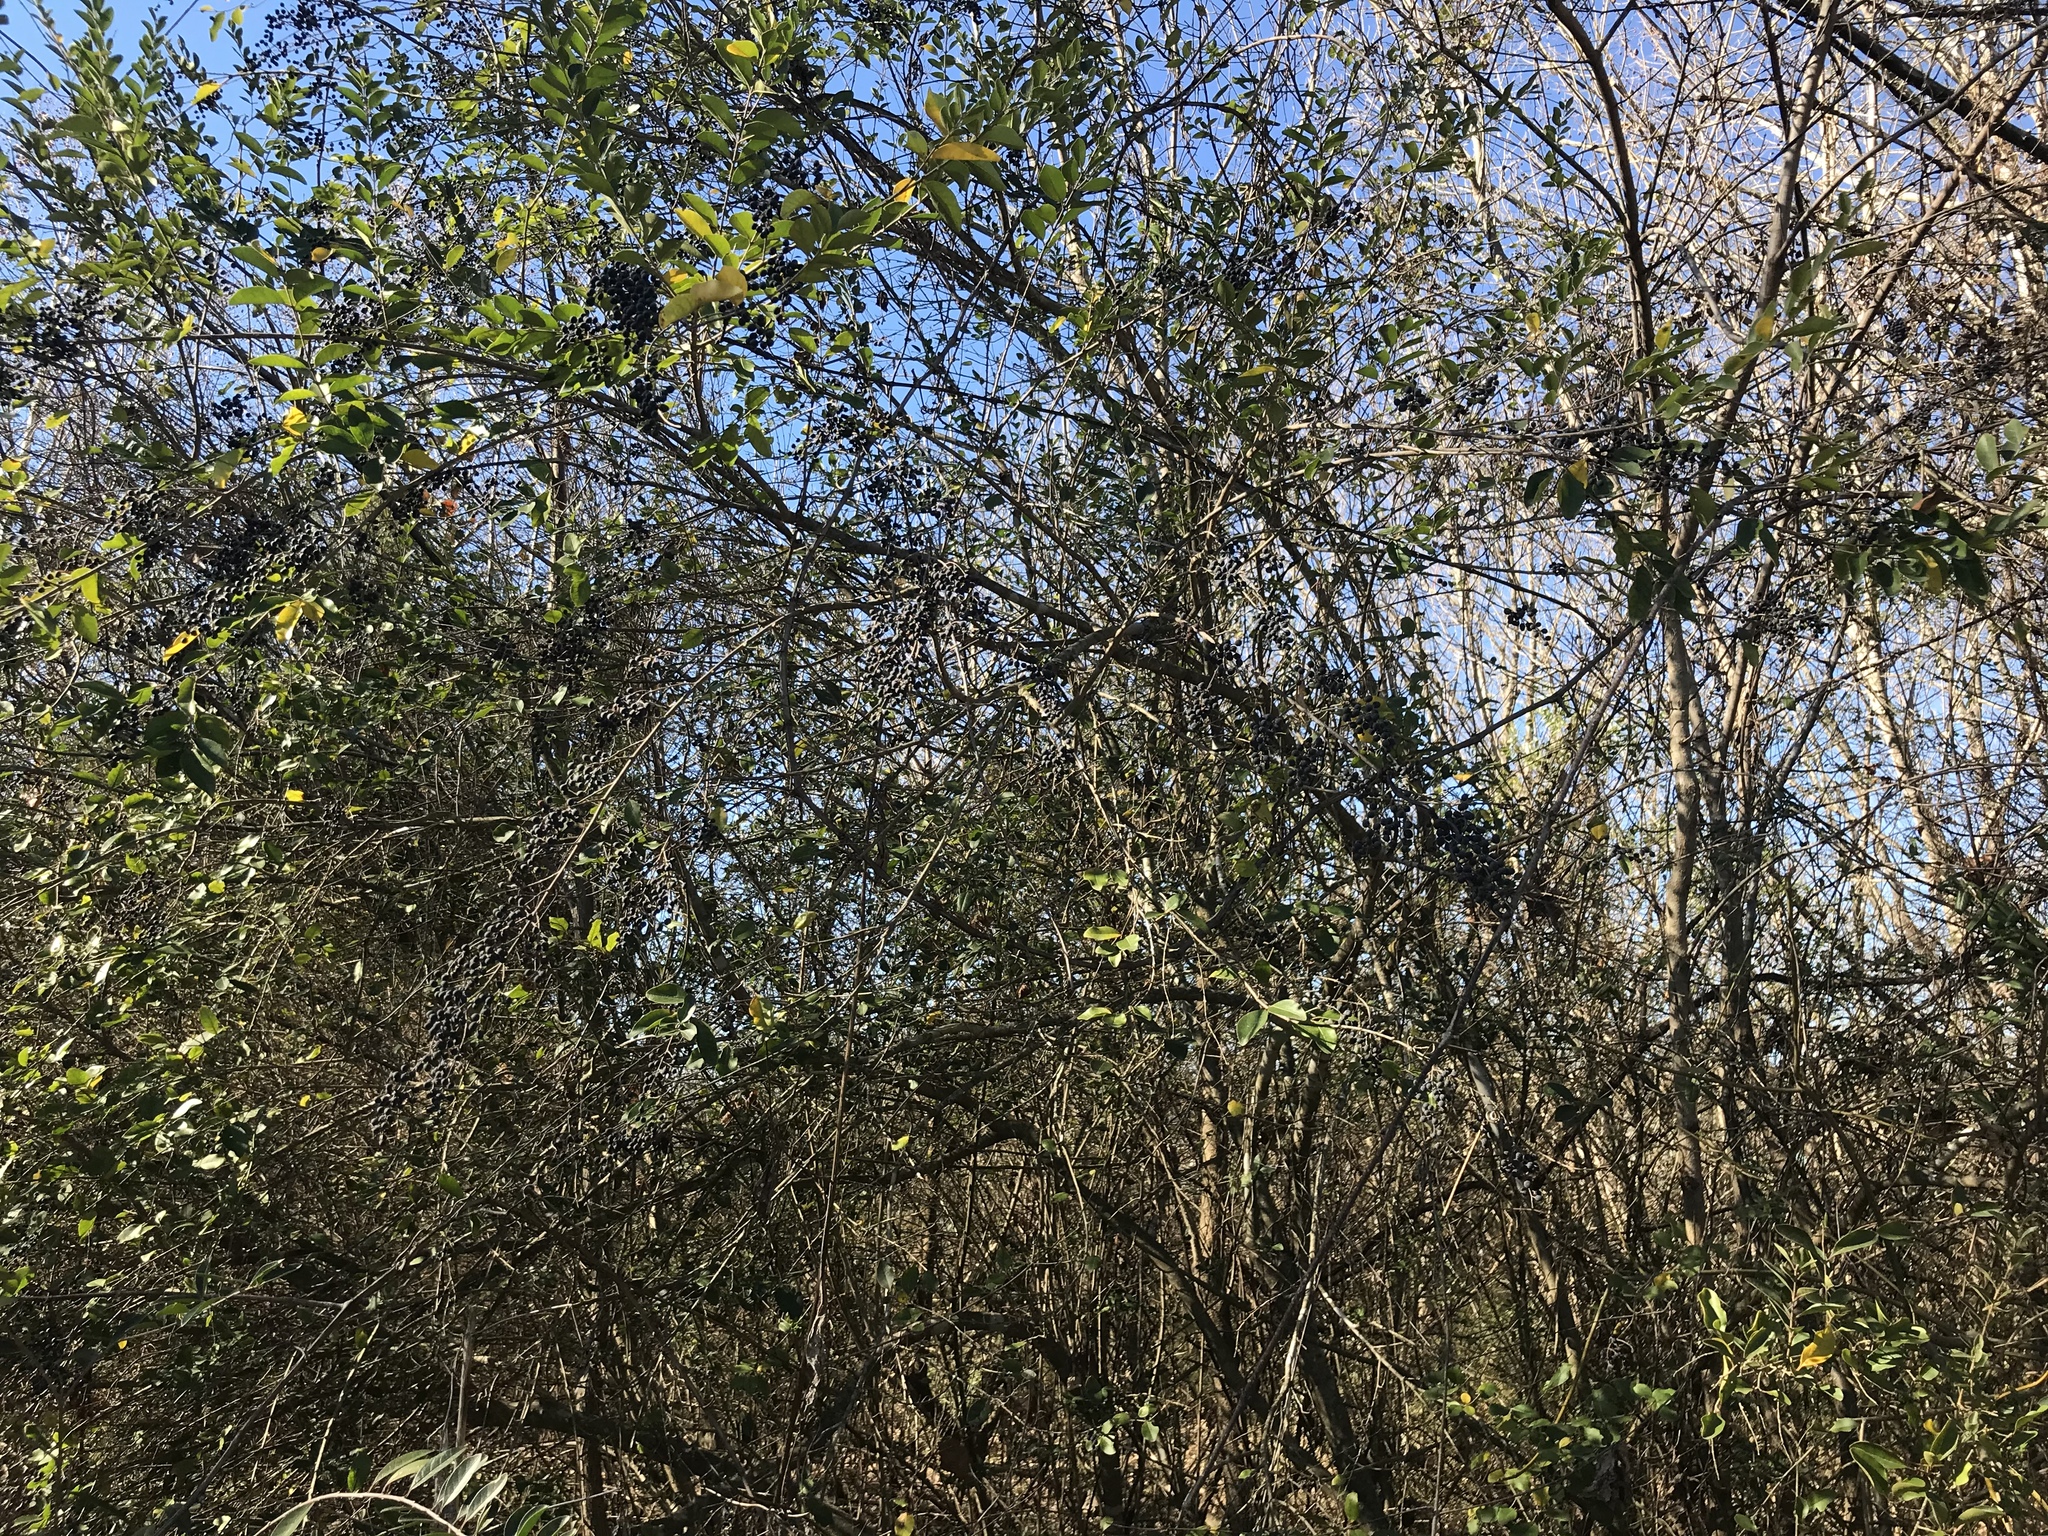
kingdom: Plantae
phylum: Tracheophyta
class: Magnoliopsida
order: Lamiales
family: Oleaceae
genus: Ligustrum
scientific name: Ligustrum sinense
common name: Chinese privet
